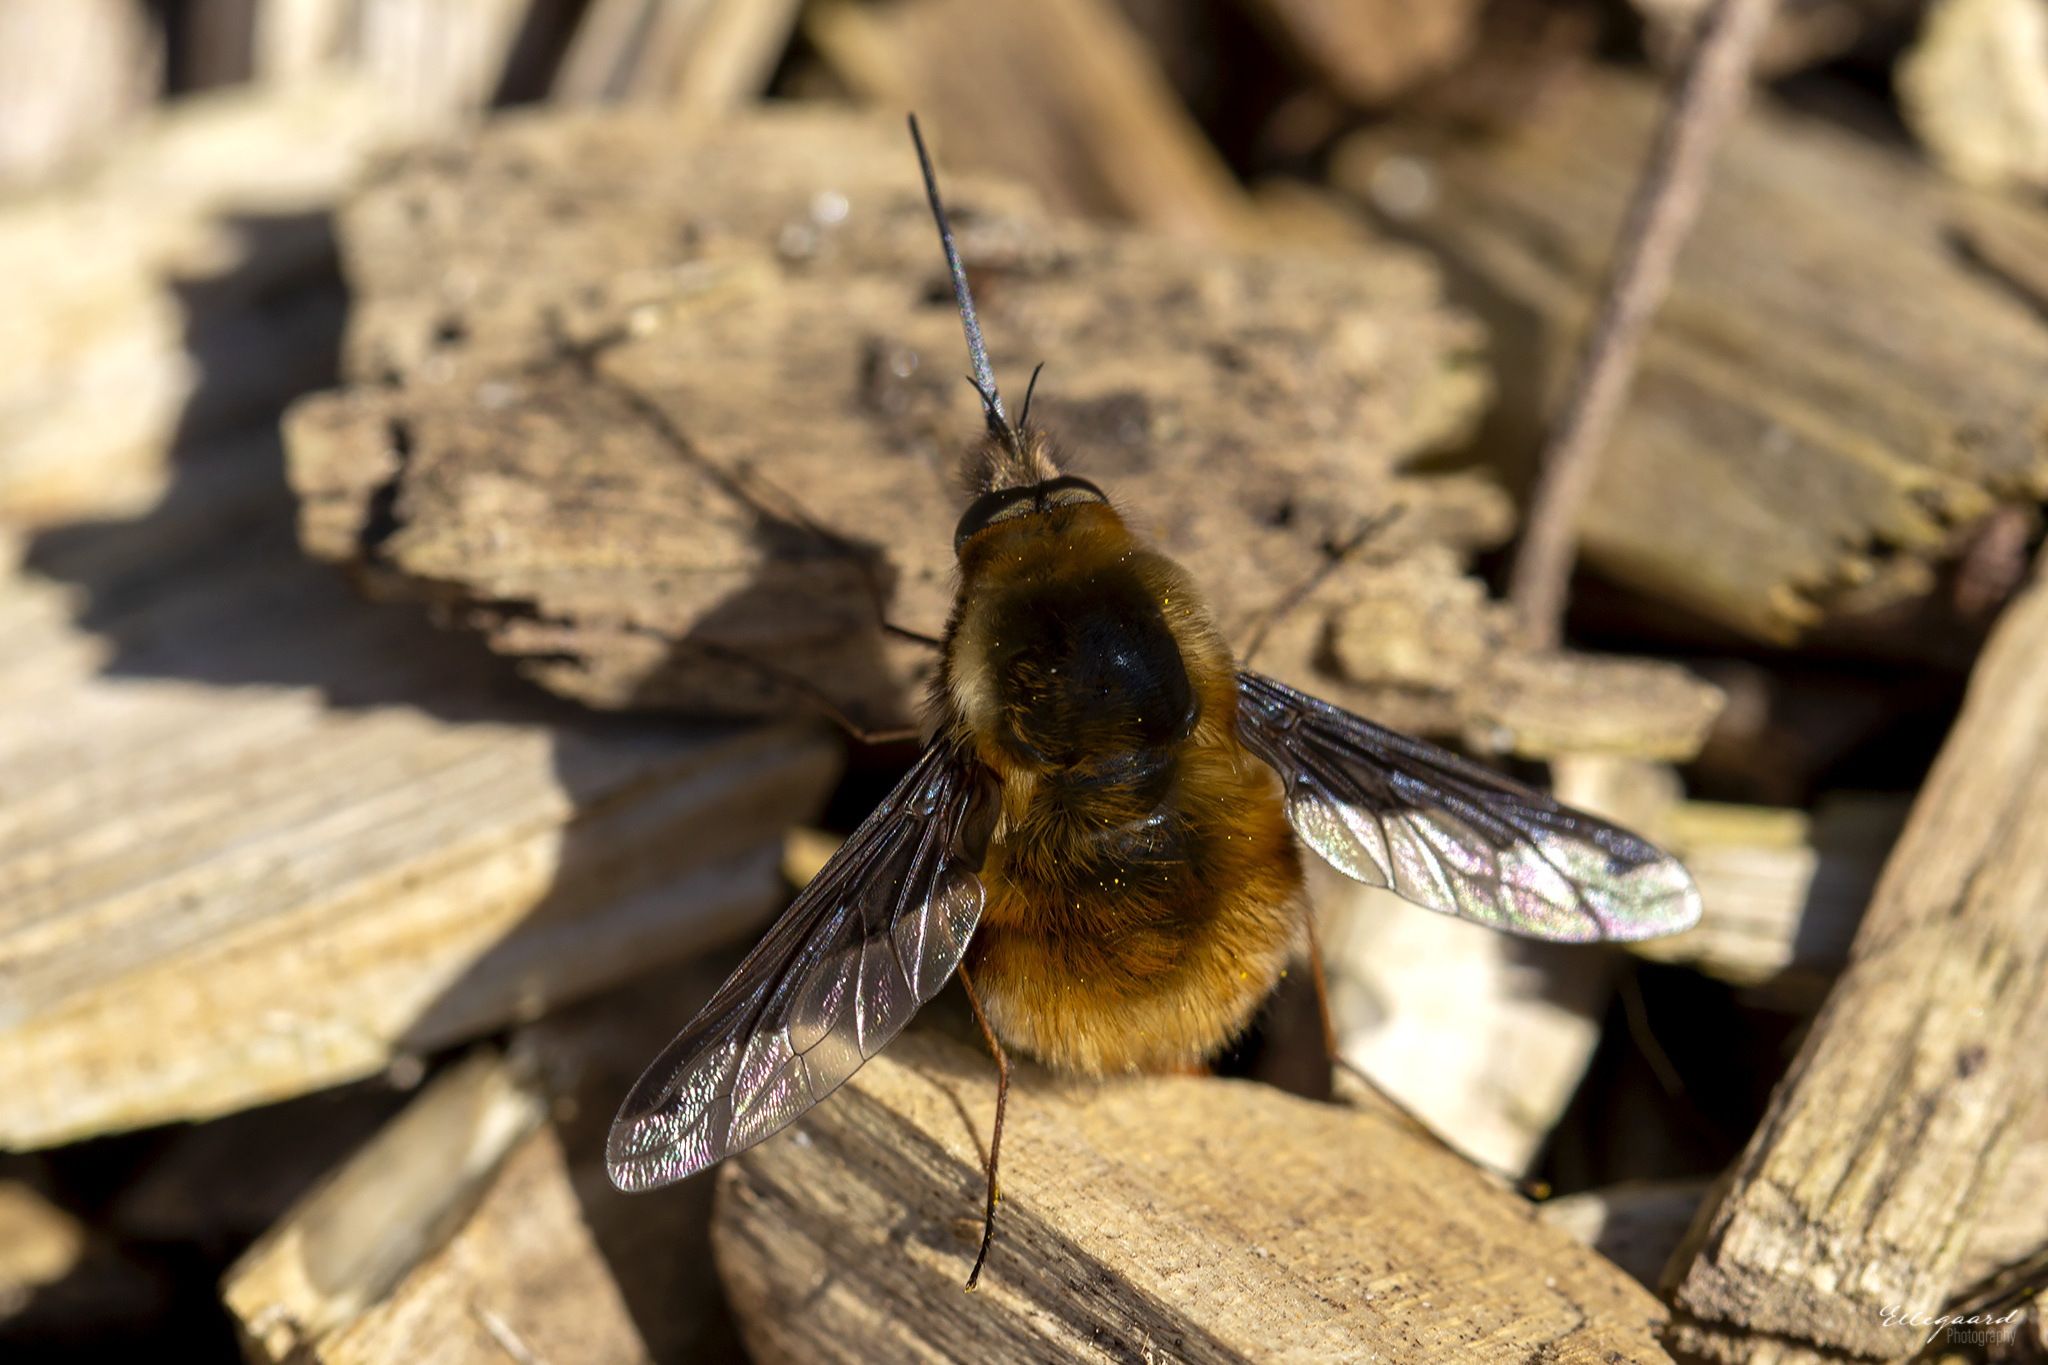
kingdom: Animalia
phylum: Arthropoda
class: Insecta
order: Diptera
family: Bombyliidae
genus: Bombylius
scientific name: Bombylius major
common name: Bee fly
